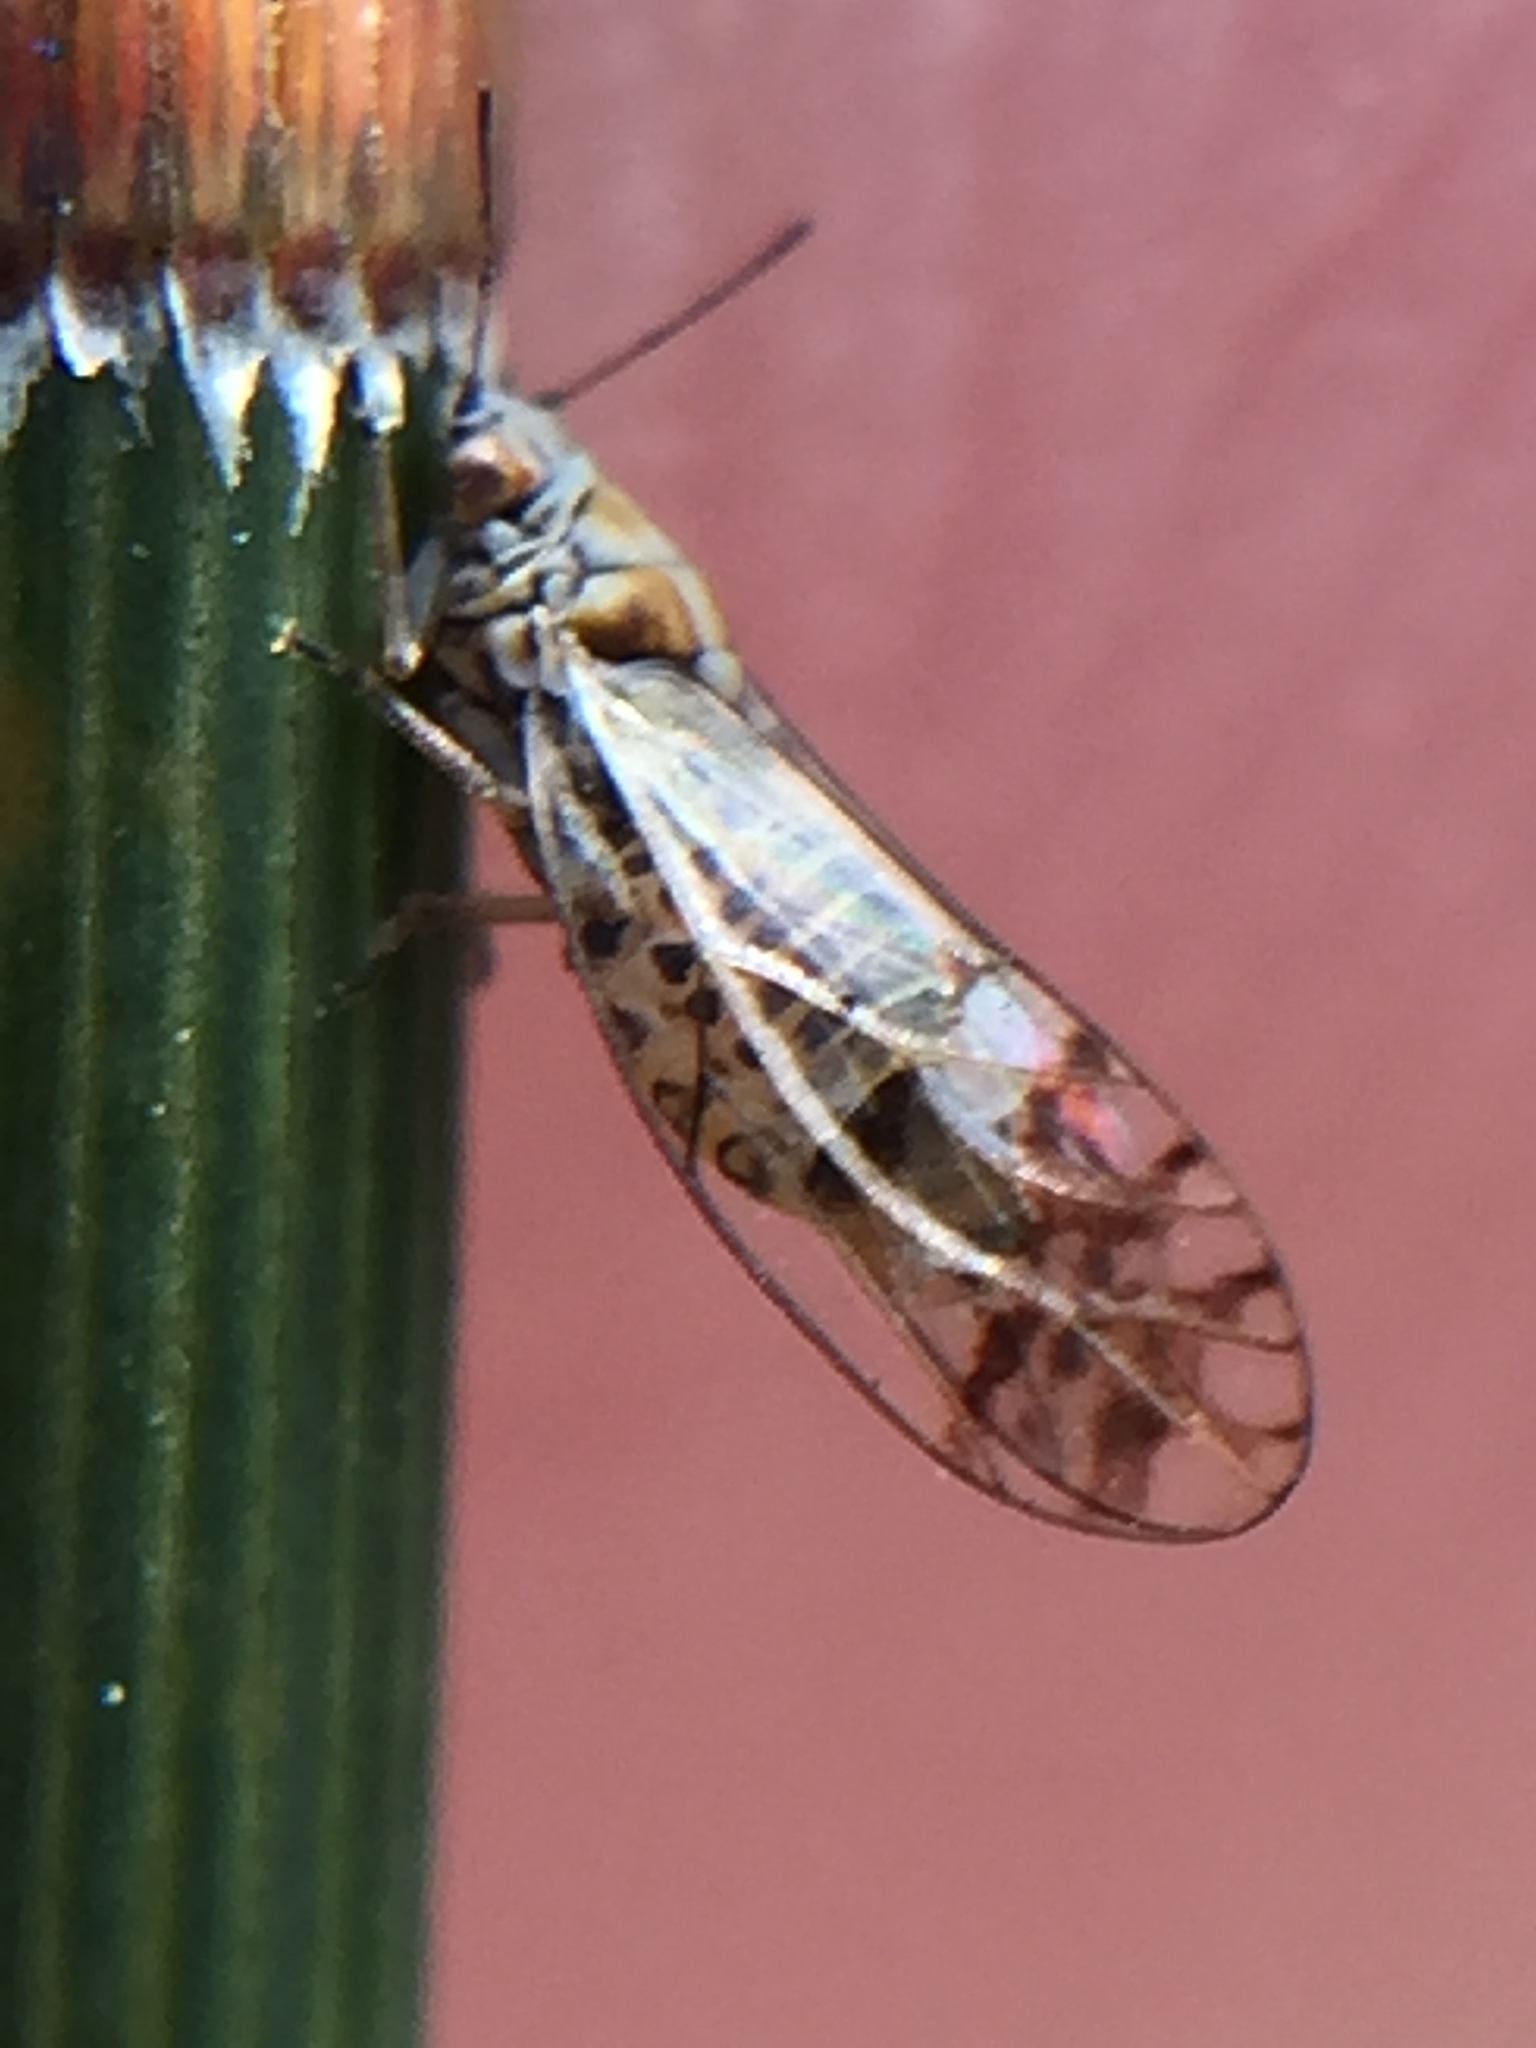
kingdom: Animalia
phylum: Arthropoda
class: Insecta
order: Hemiptera
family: Triozidae
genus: Casuarinicola
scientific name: Casuarinicola australis
